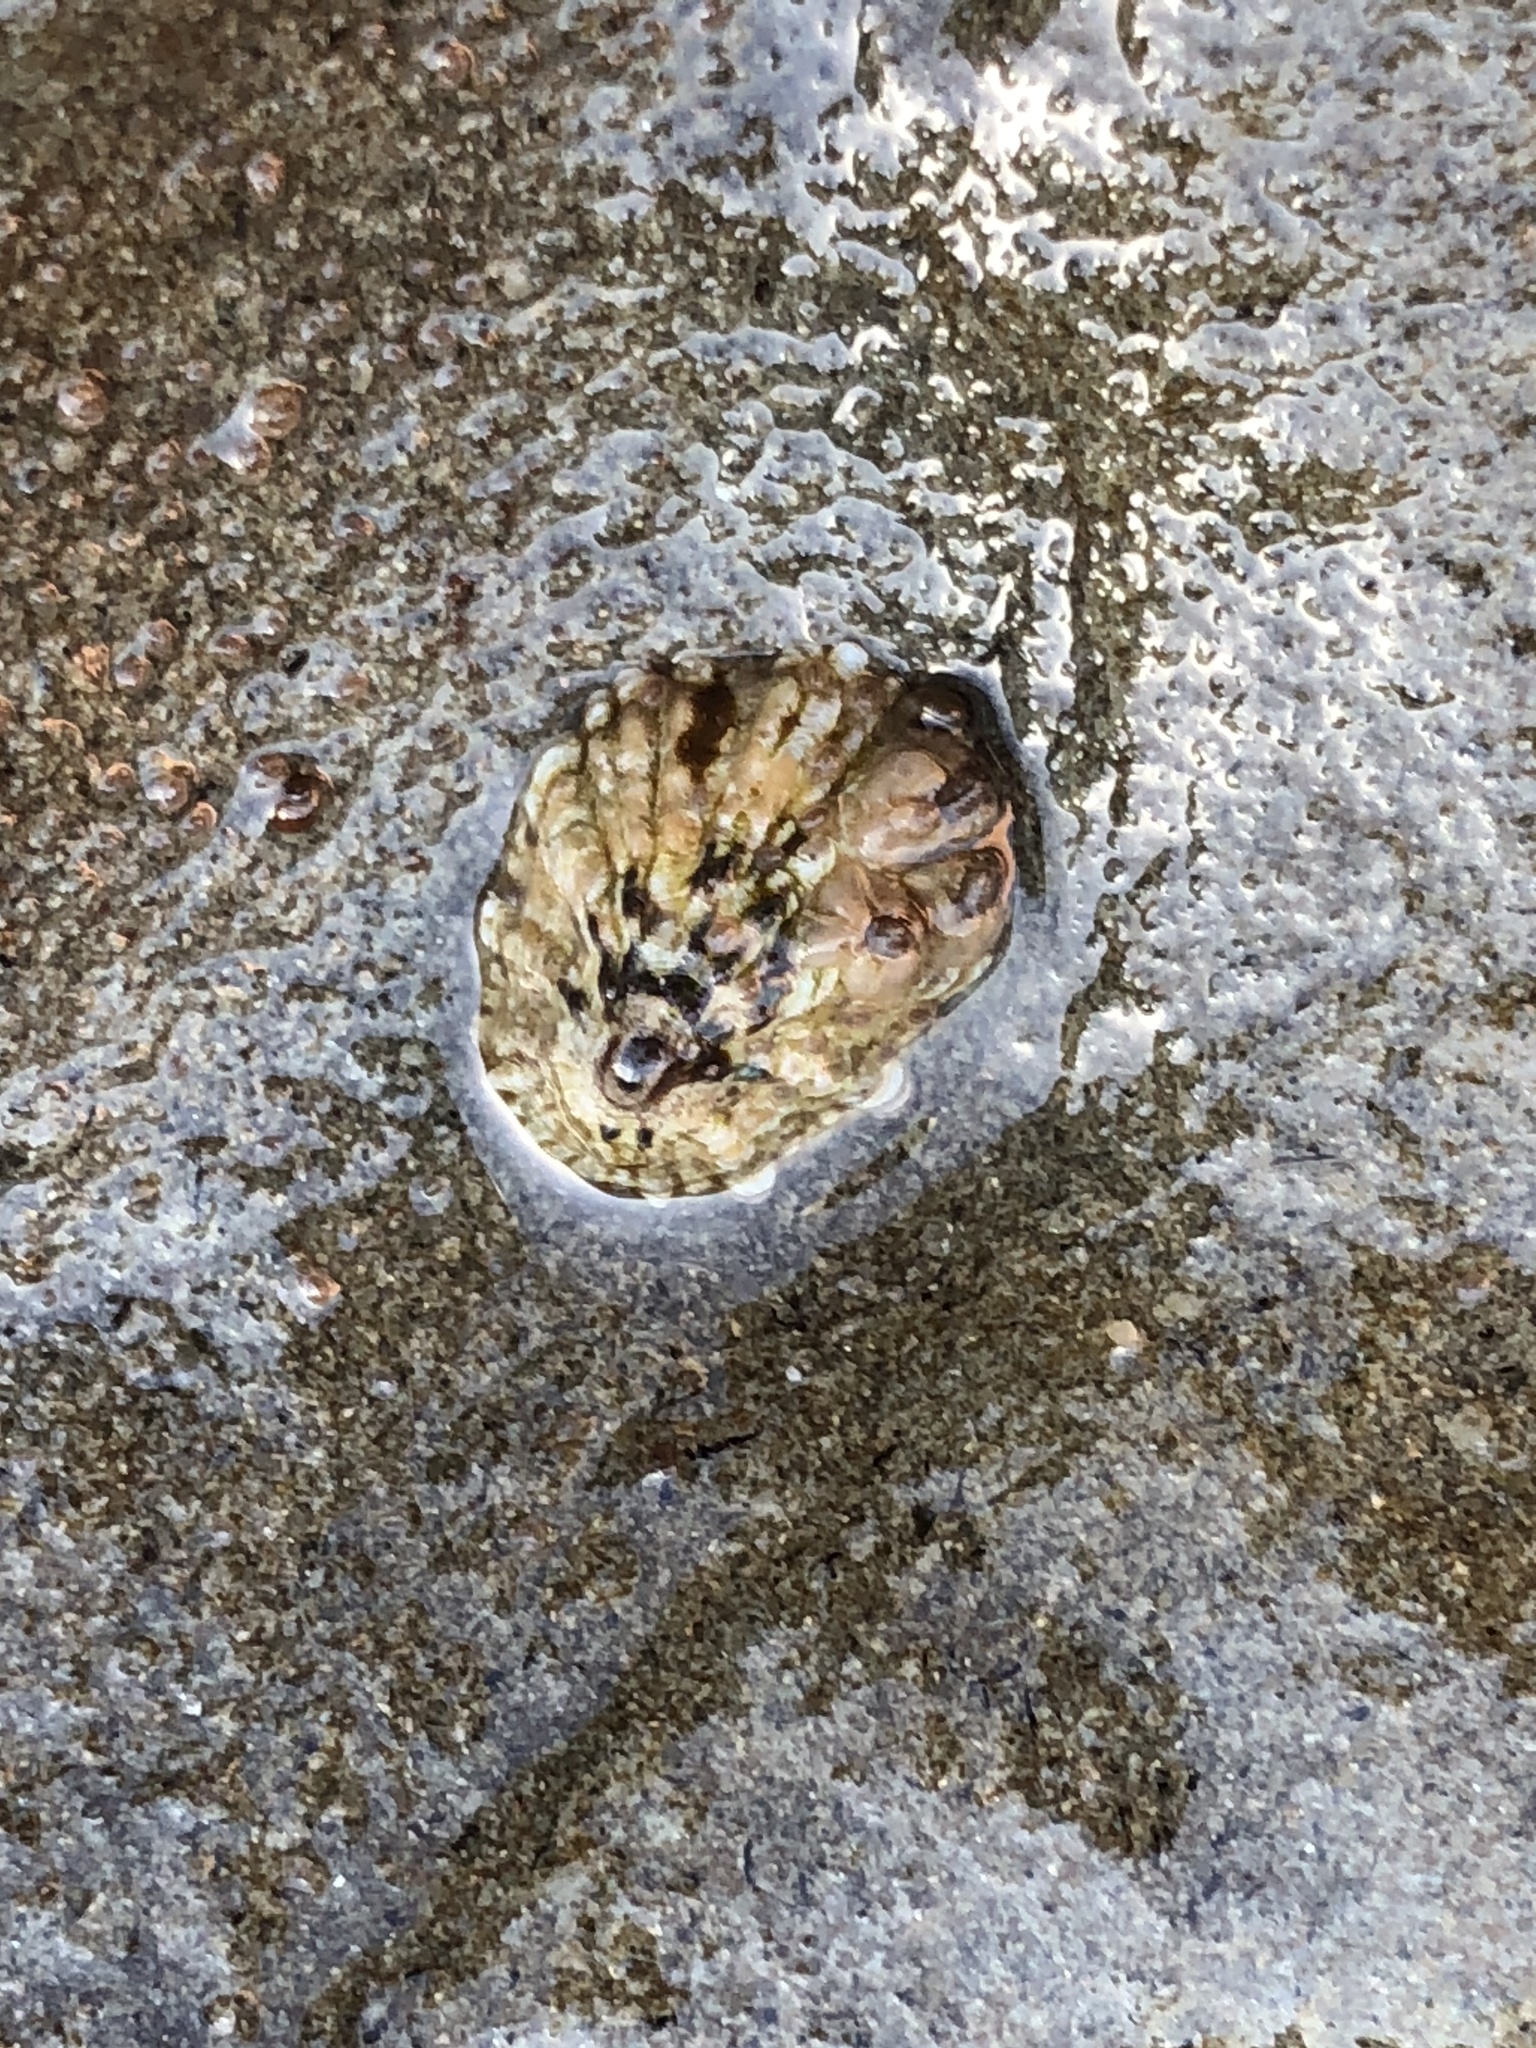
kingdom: Animalia
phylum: Mollusca
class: Gastropoda
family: Lottiidae
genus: Lottia
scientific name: Lottia scabra
